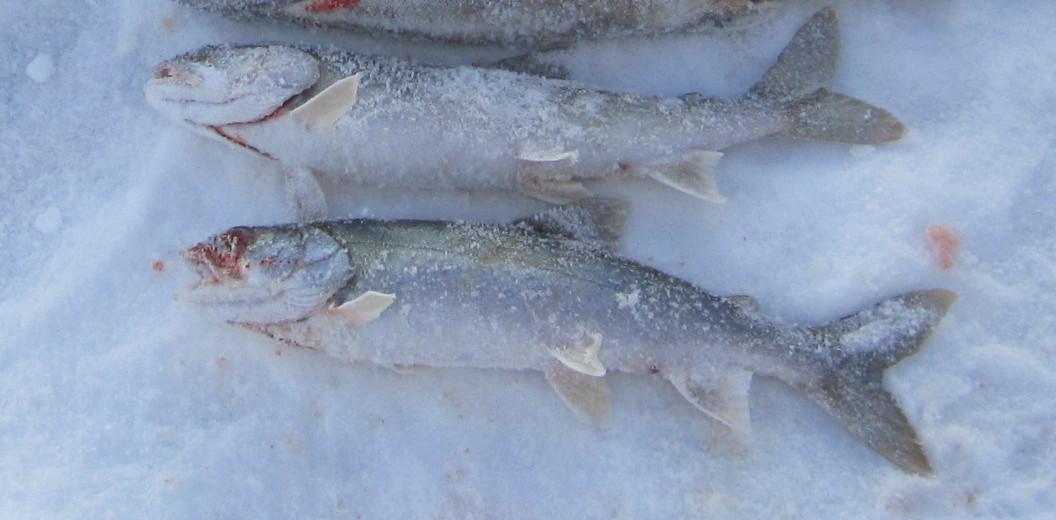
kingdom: Animalia
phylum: Chordata
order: Salmoniformes
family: Salmonidae
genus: Salvelinus
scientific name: Salvelinus namaycush
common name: American lake charr
